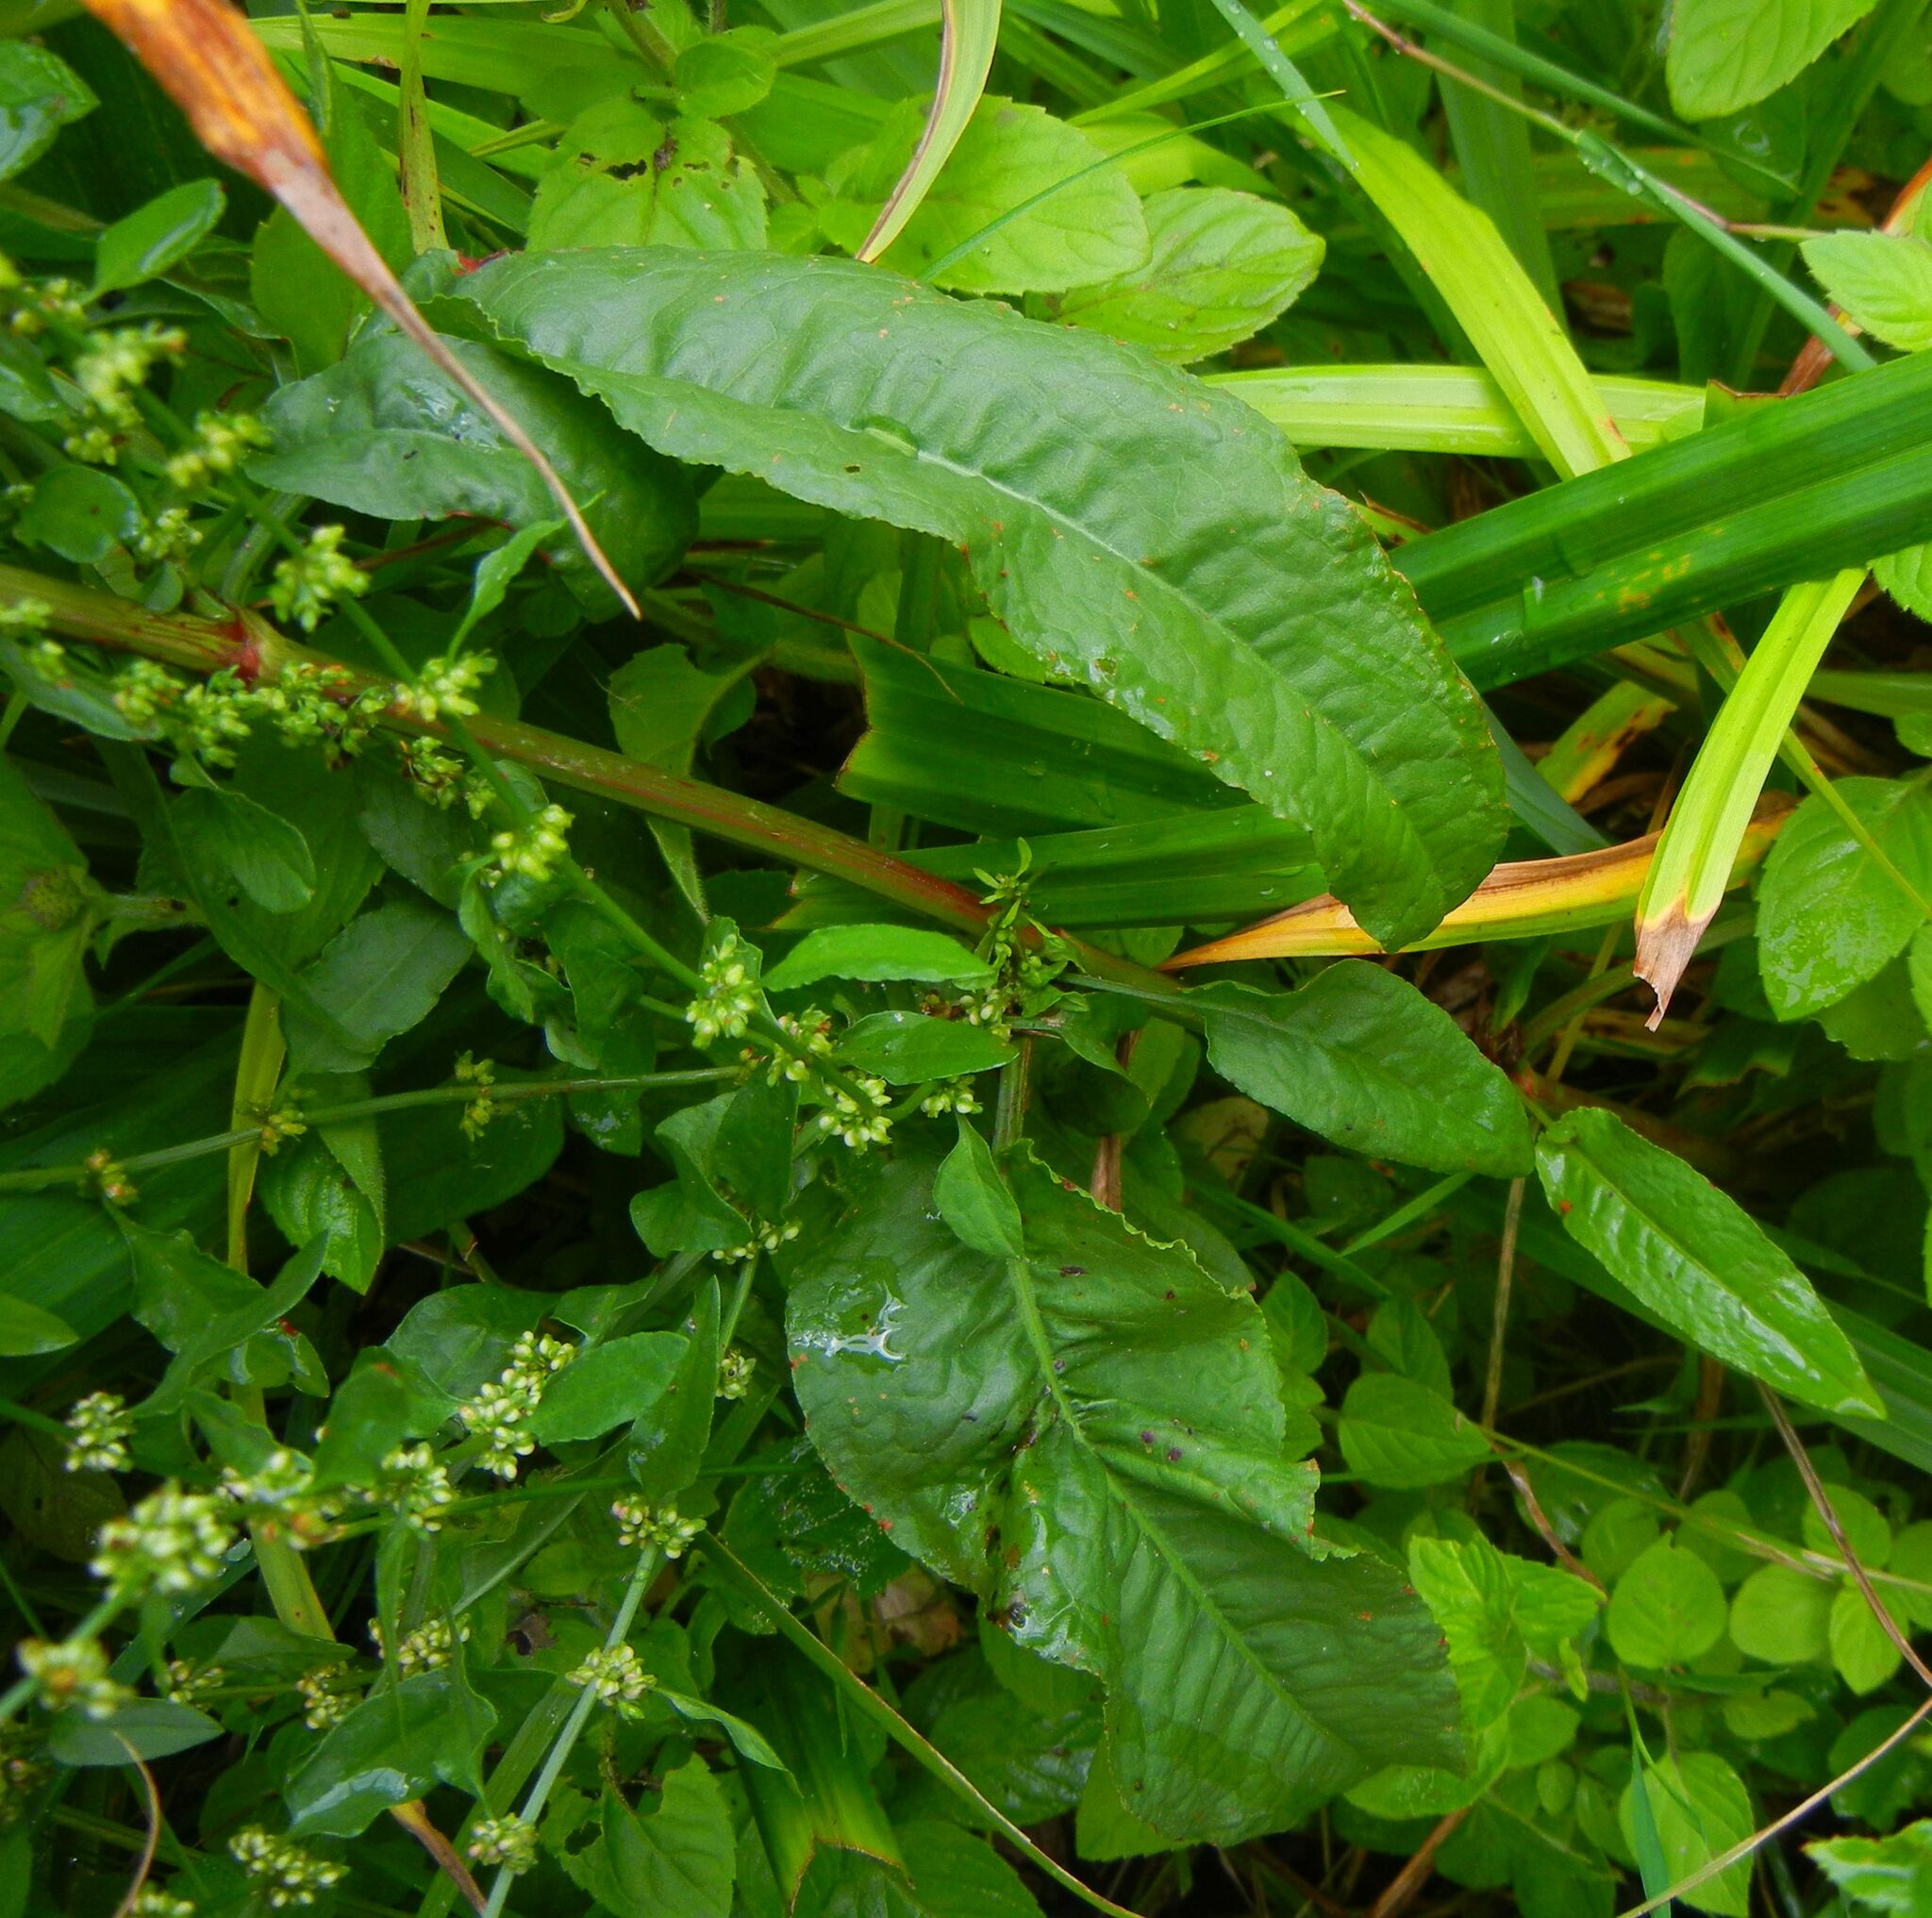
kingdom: Plantae
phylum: Tracheophyta
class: Magnoliopsida
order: Caryophyllales
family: Polygonaceae
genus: Rumex
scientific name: Rumex conglomeratus
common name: Clustered dock
